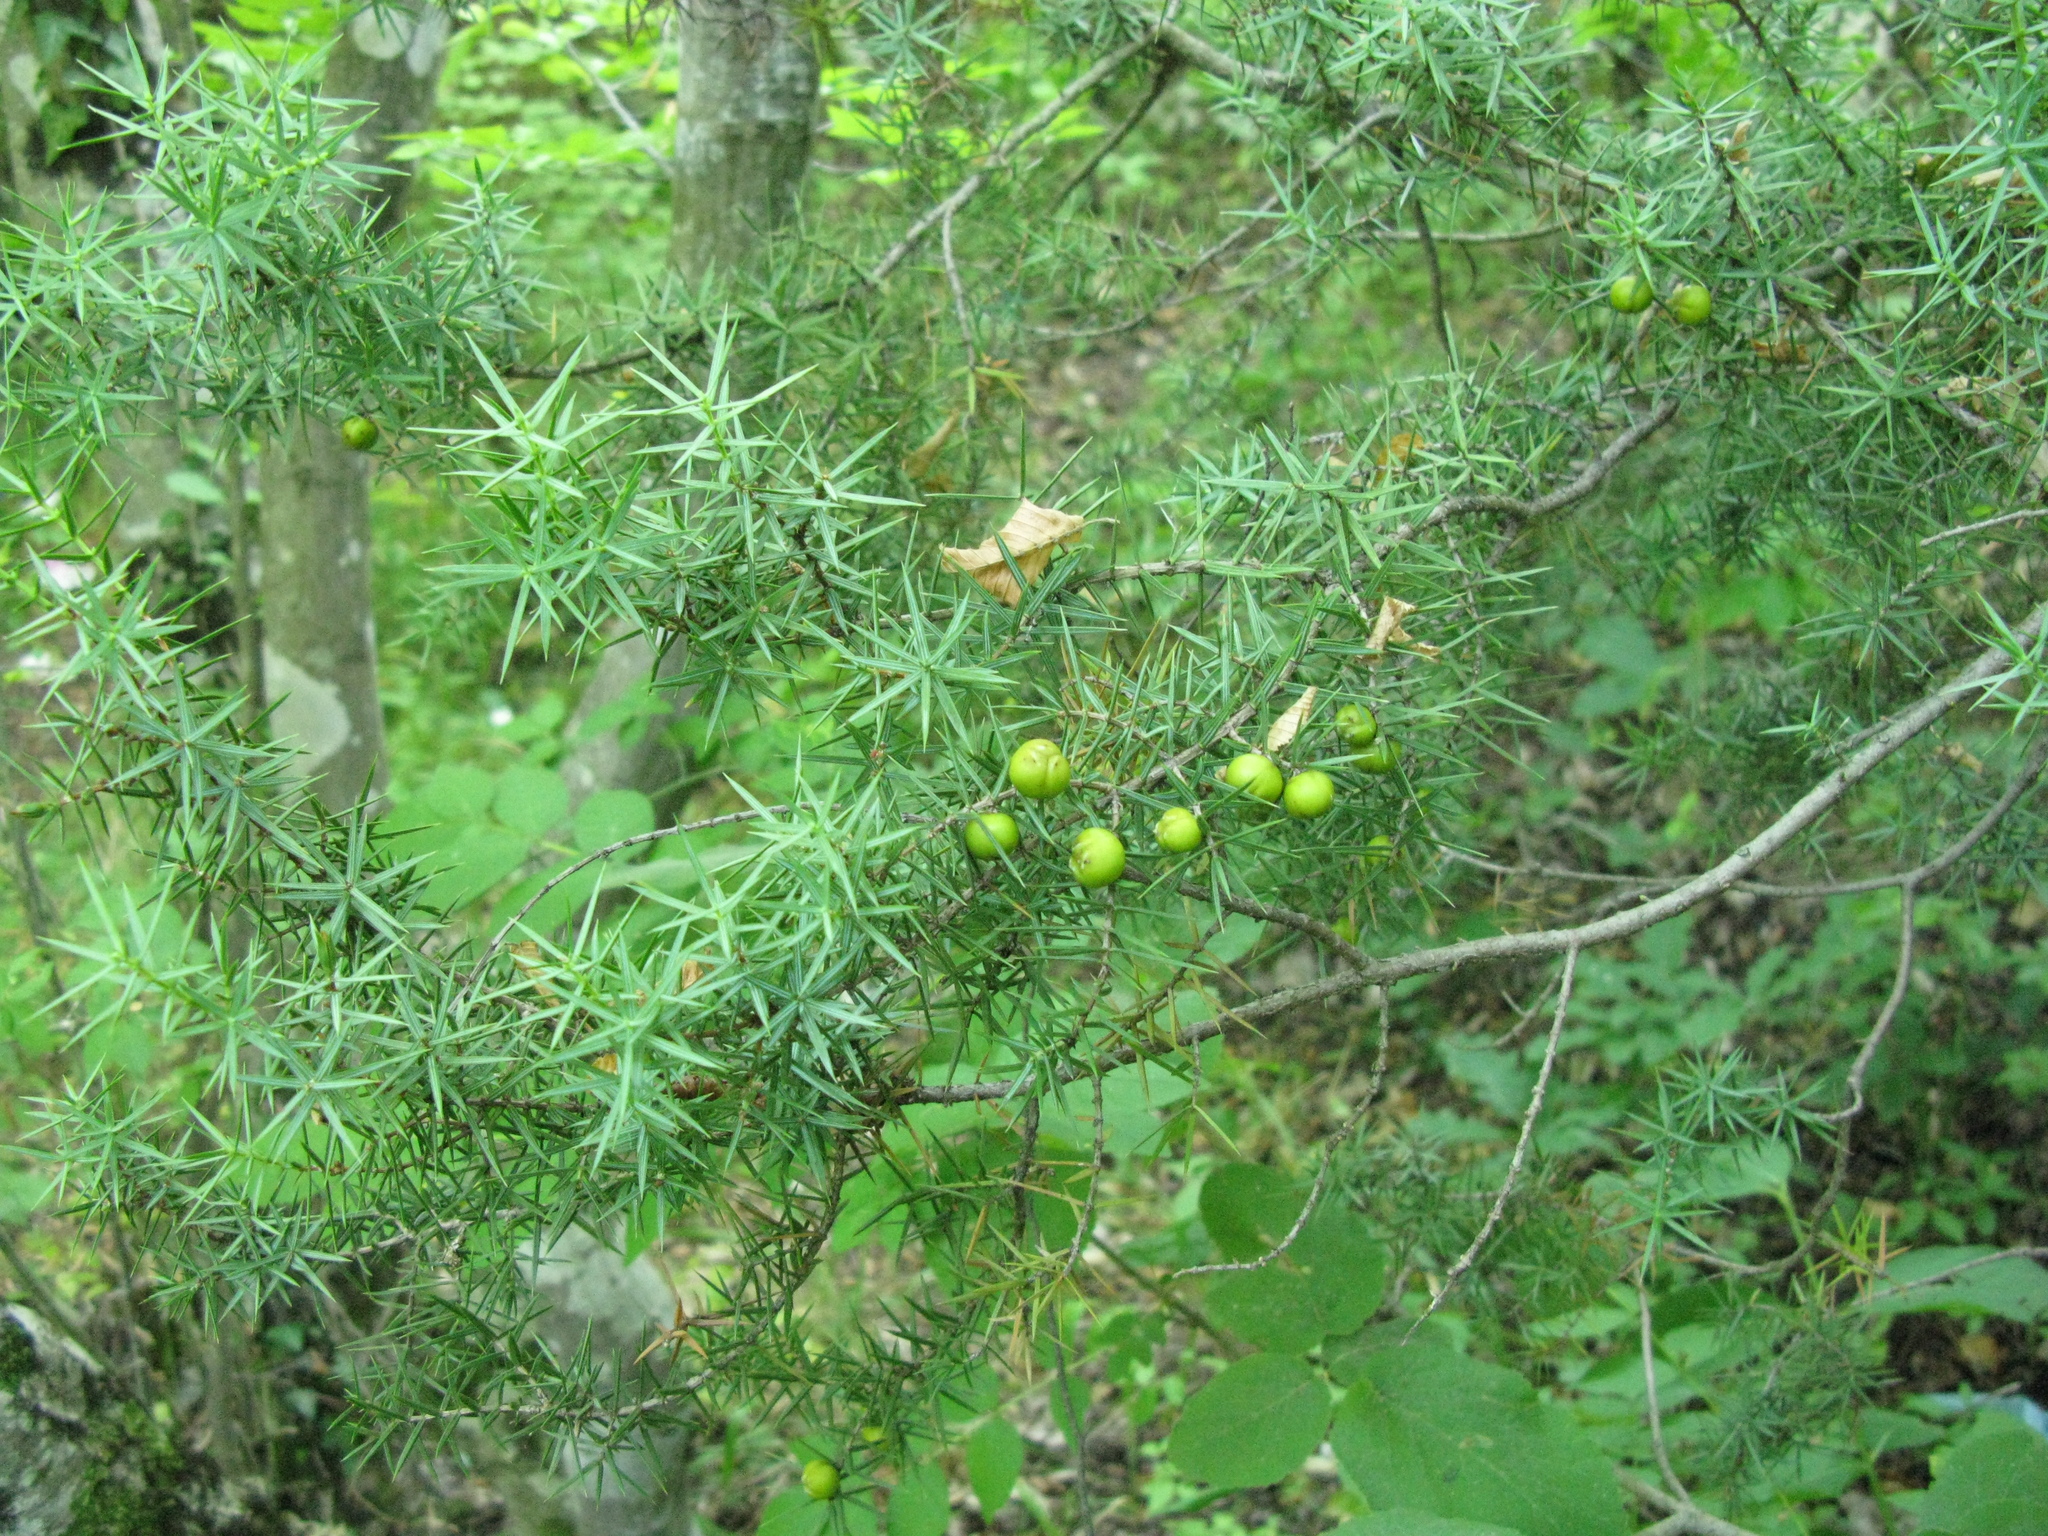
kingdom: Plantae
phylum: Tracheophyta
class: Pinopsida
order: Pinales
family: Cupressaceae
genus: Juniperus
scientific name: Juniperus oxycedrus
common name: Prickly juniper
